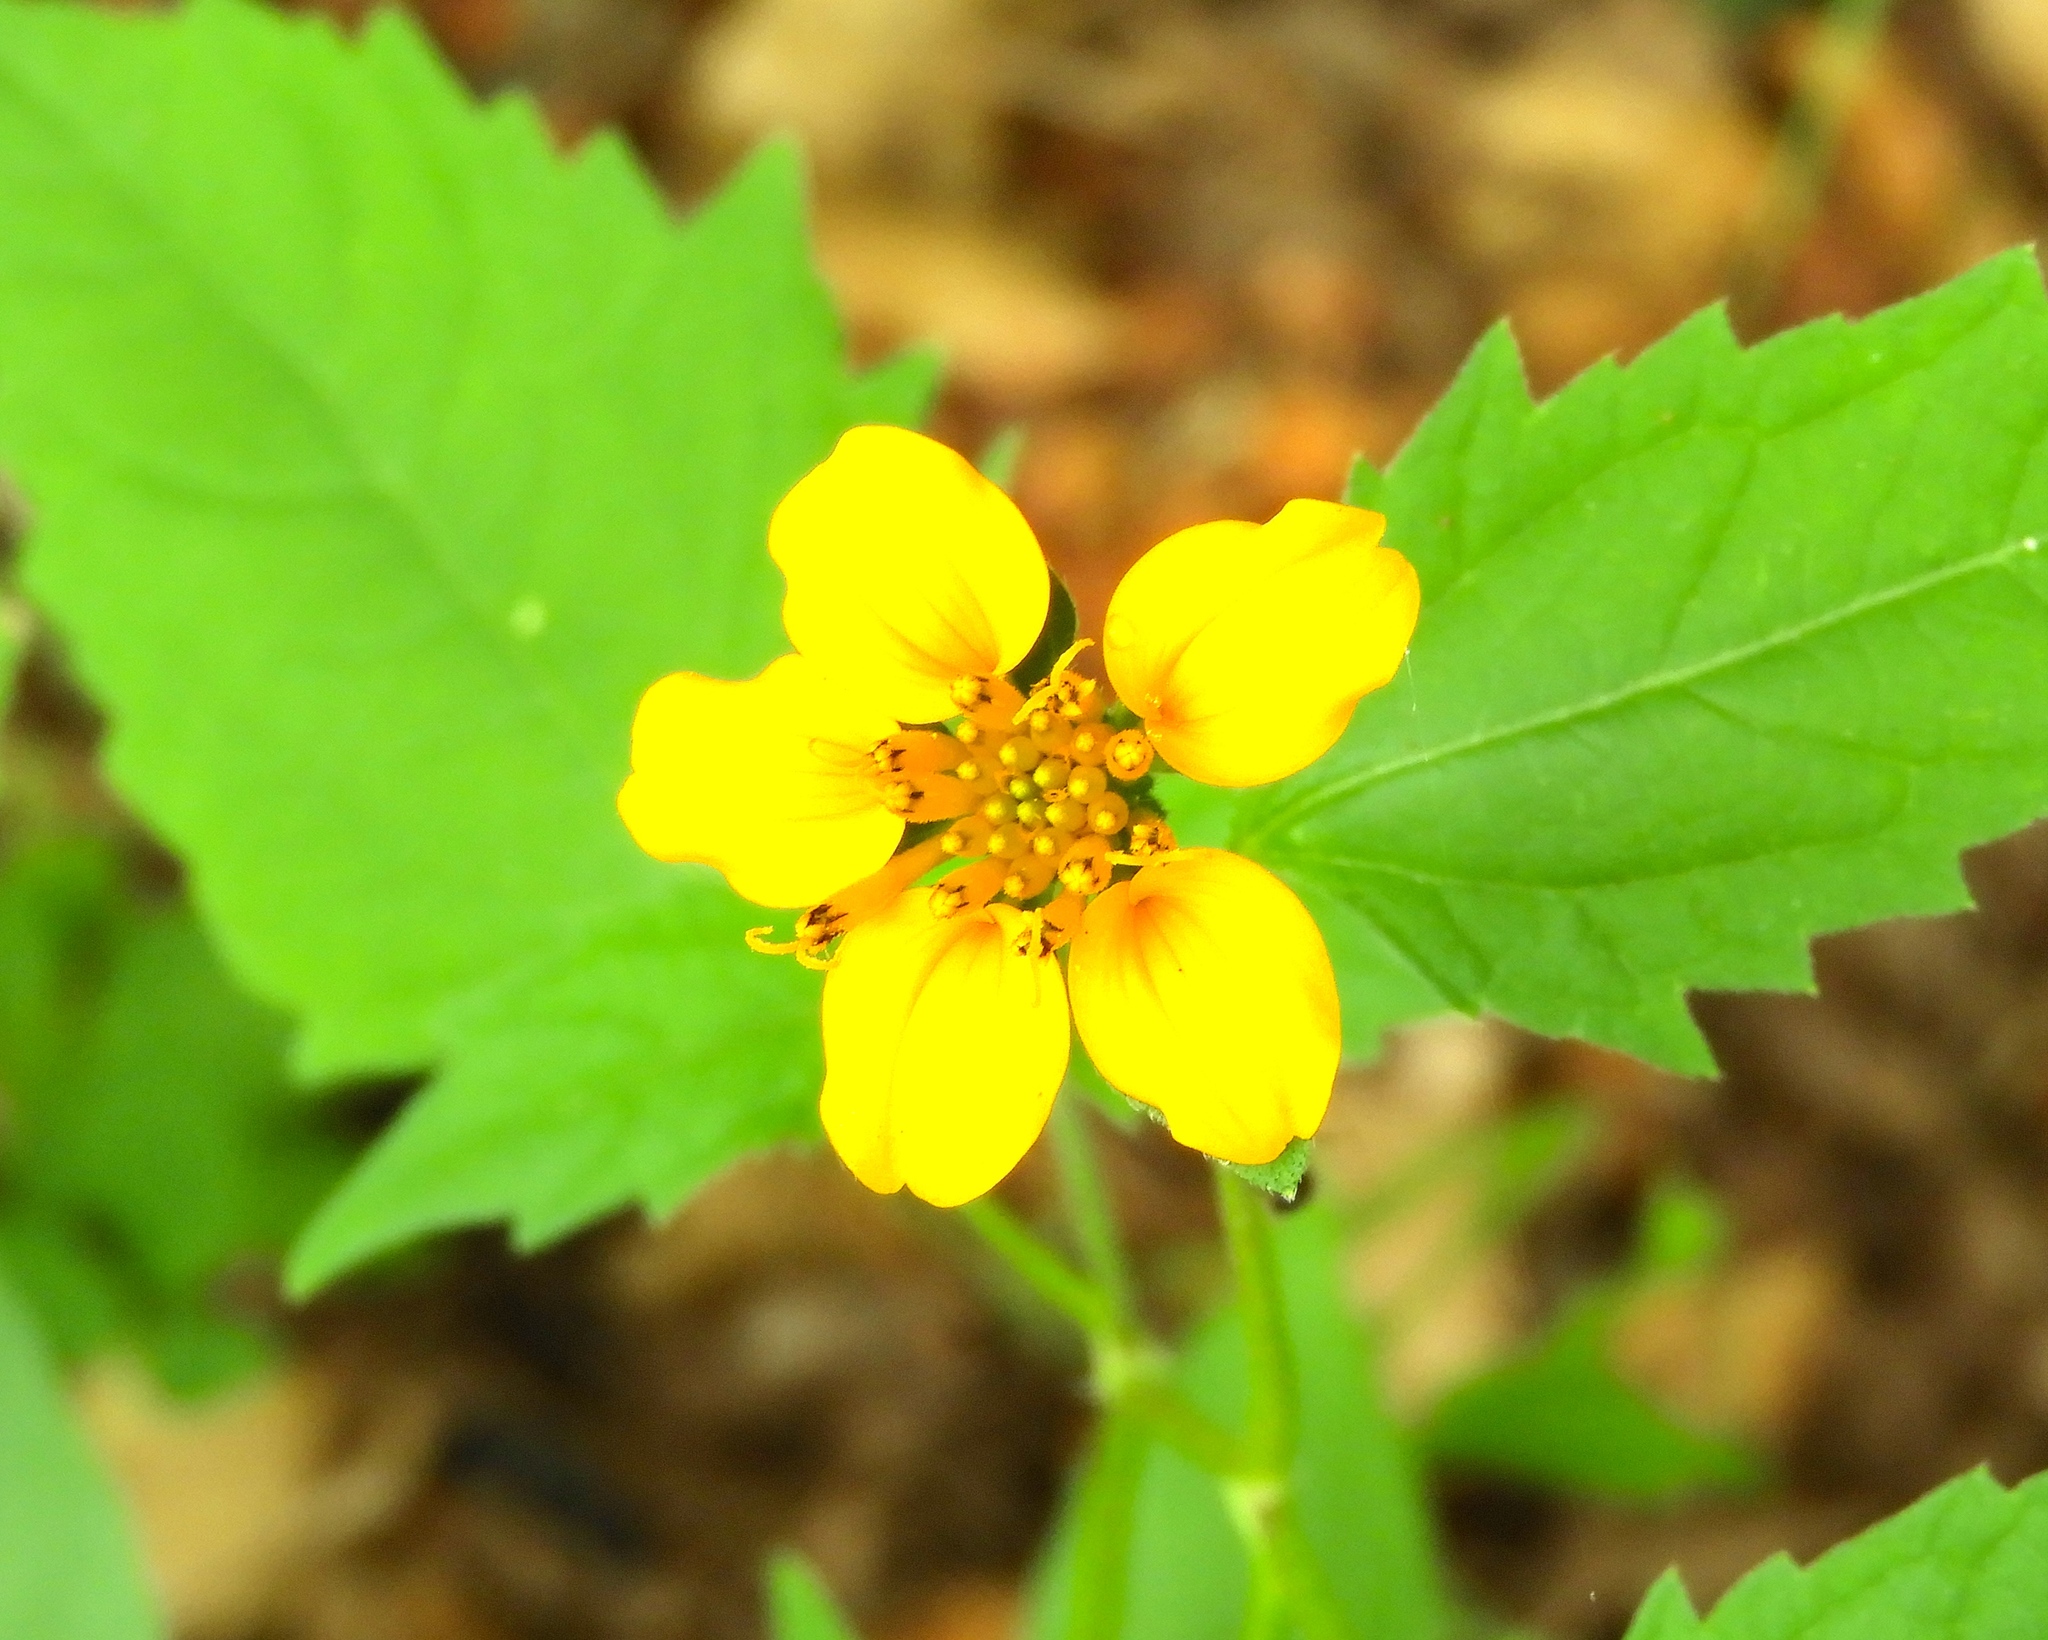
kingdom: Plantae
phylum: Tracheophyta
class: Magnoliopsida
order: Asterales
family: Asteraceae
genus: Sclerocarpus
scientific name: Sclerocarpus divaricatus
